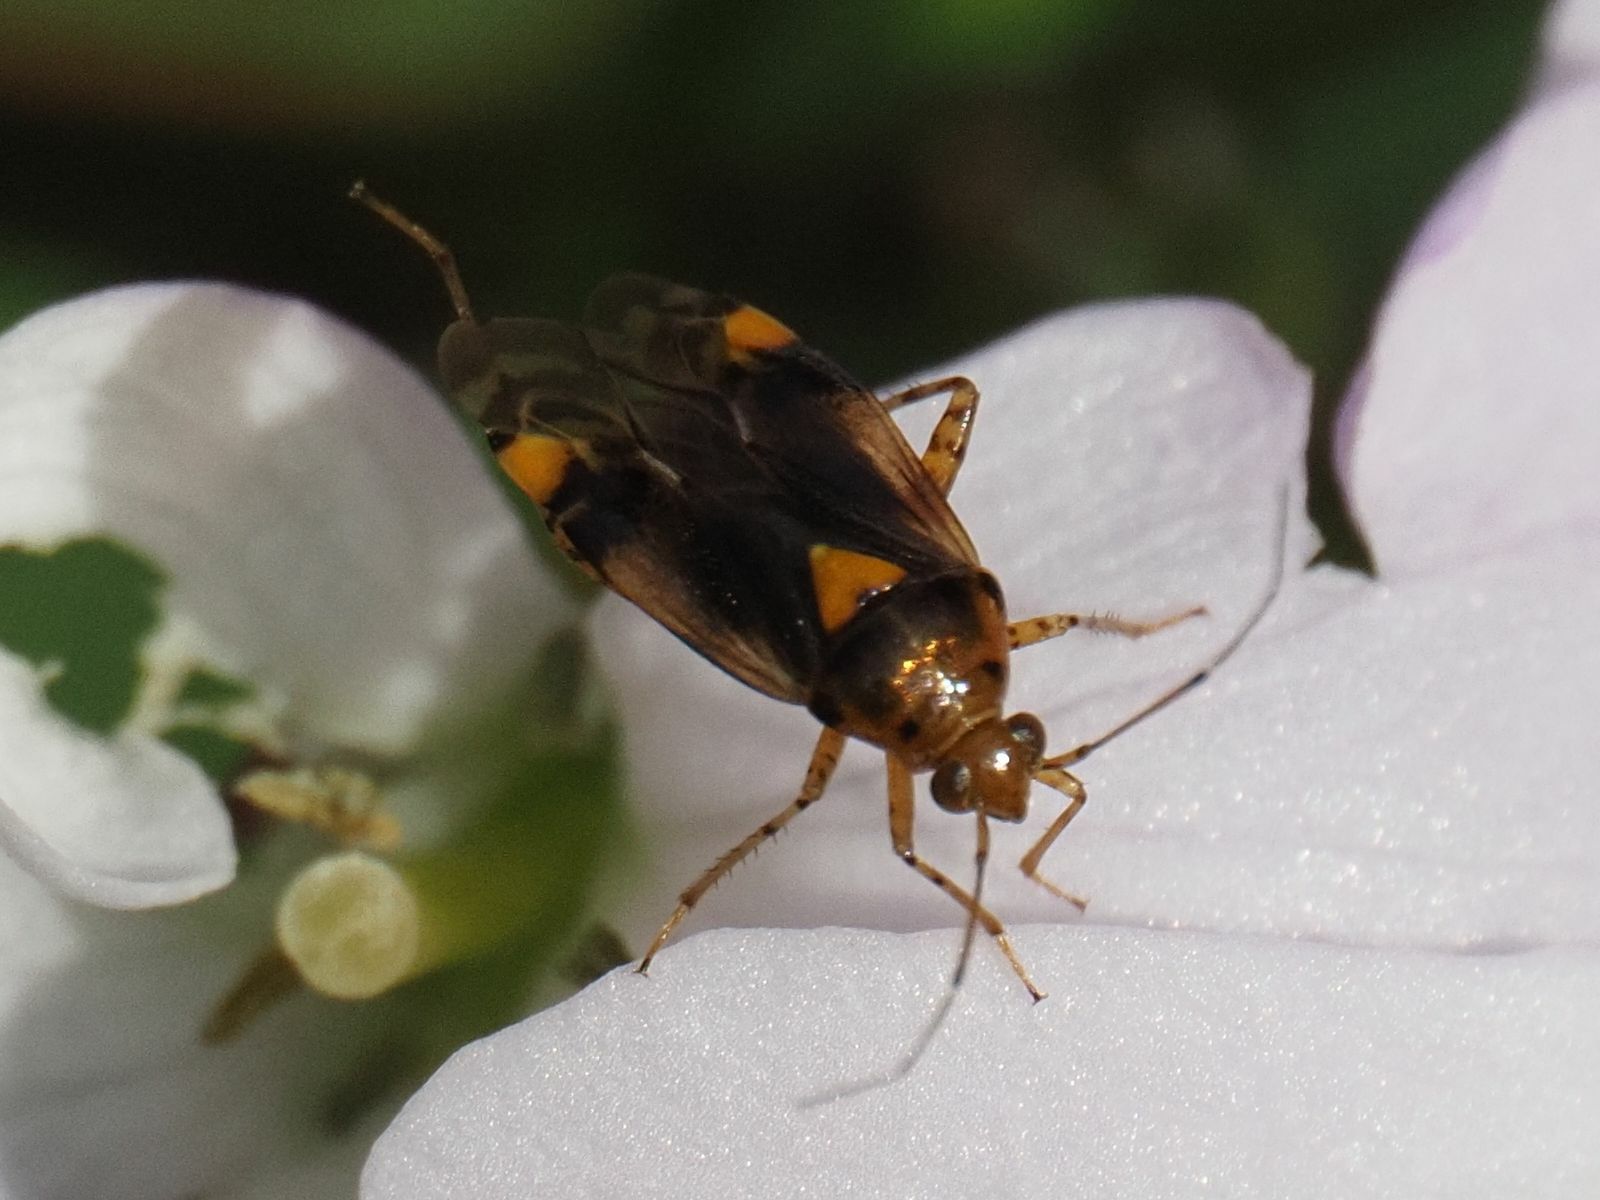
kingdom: Animalia
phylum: Arthropoda
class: Insecta
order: Hemiptera
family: Miridae
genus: Liocoris
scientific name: Liocoris tripustulatus
